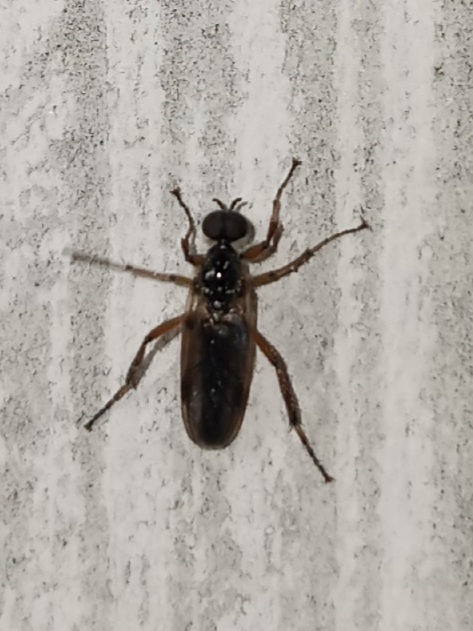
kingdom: Animalia
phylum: Arthropoda
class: Insecta
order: Diptera
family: Bibionidae
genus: Bibio
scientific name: Bibio
